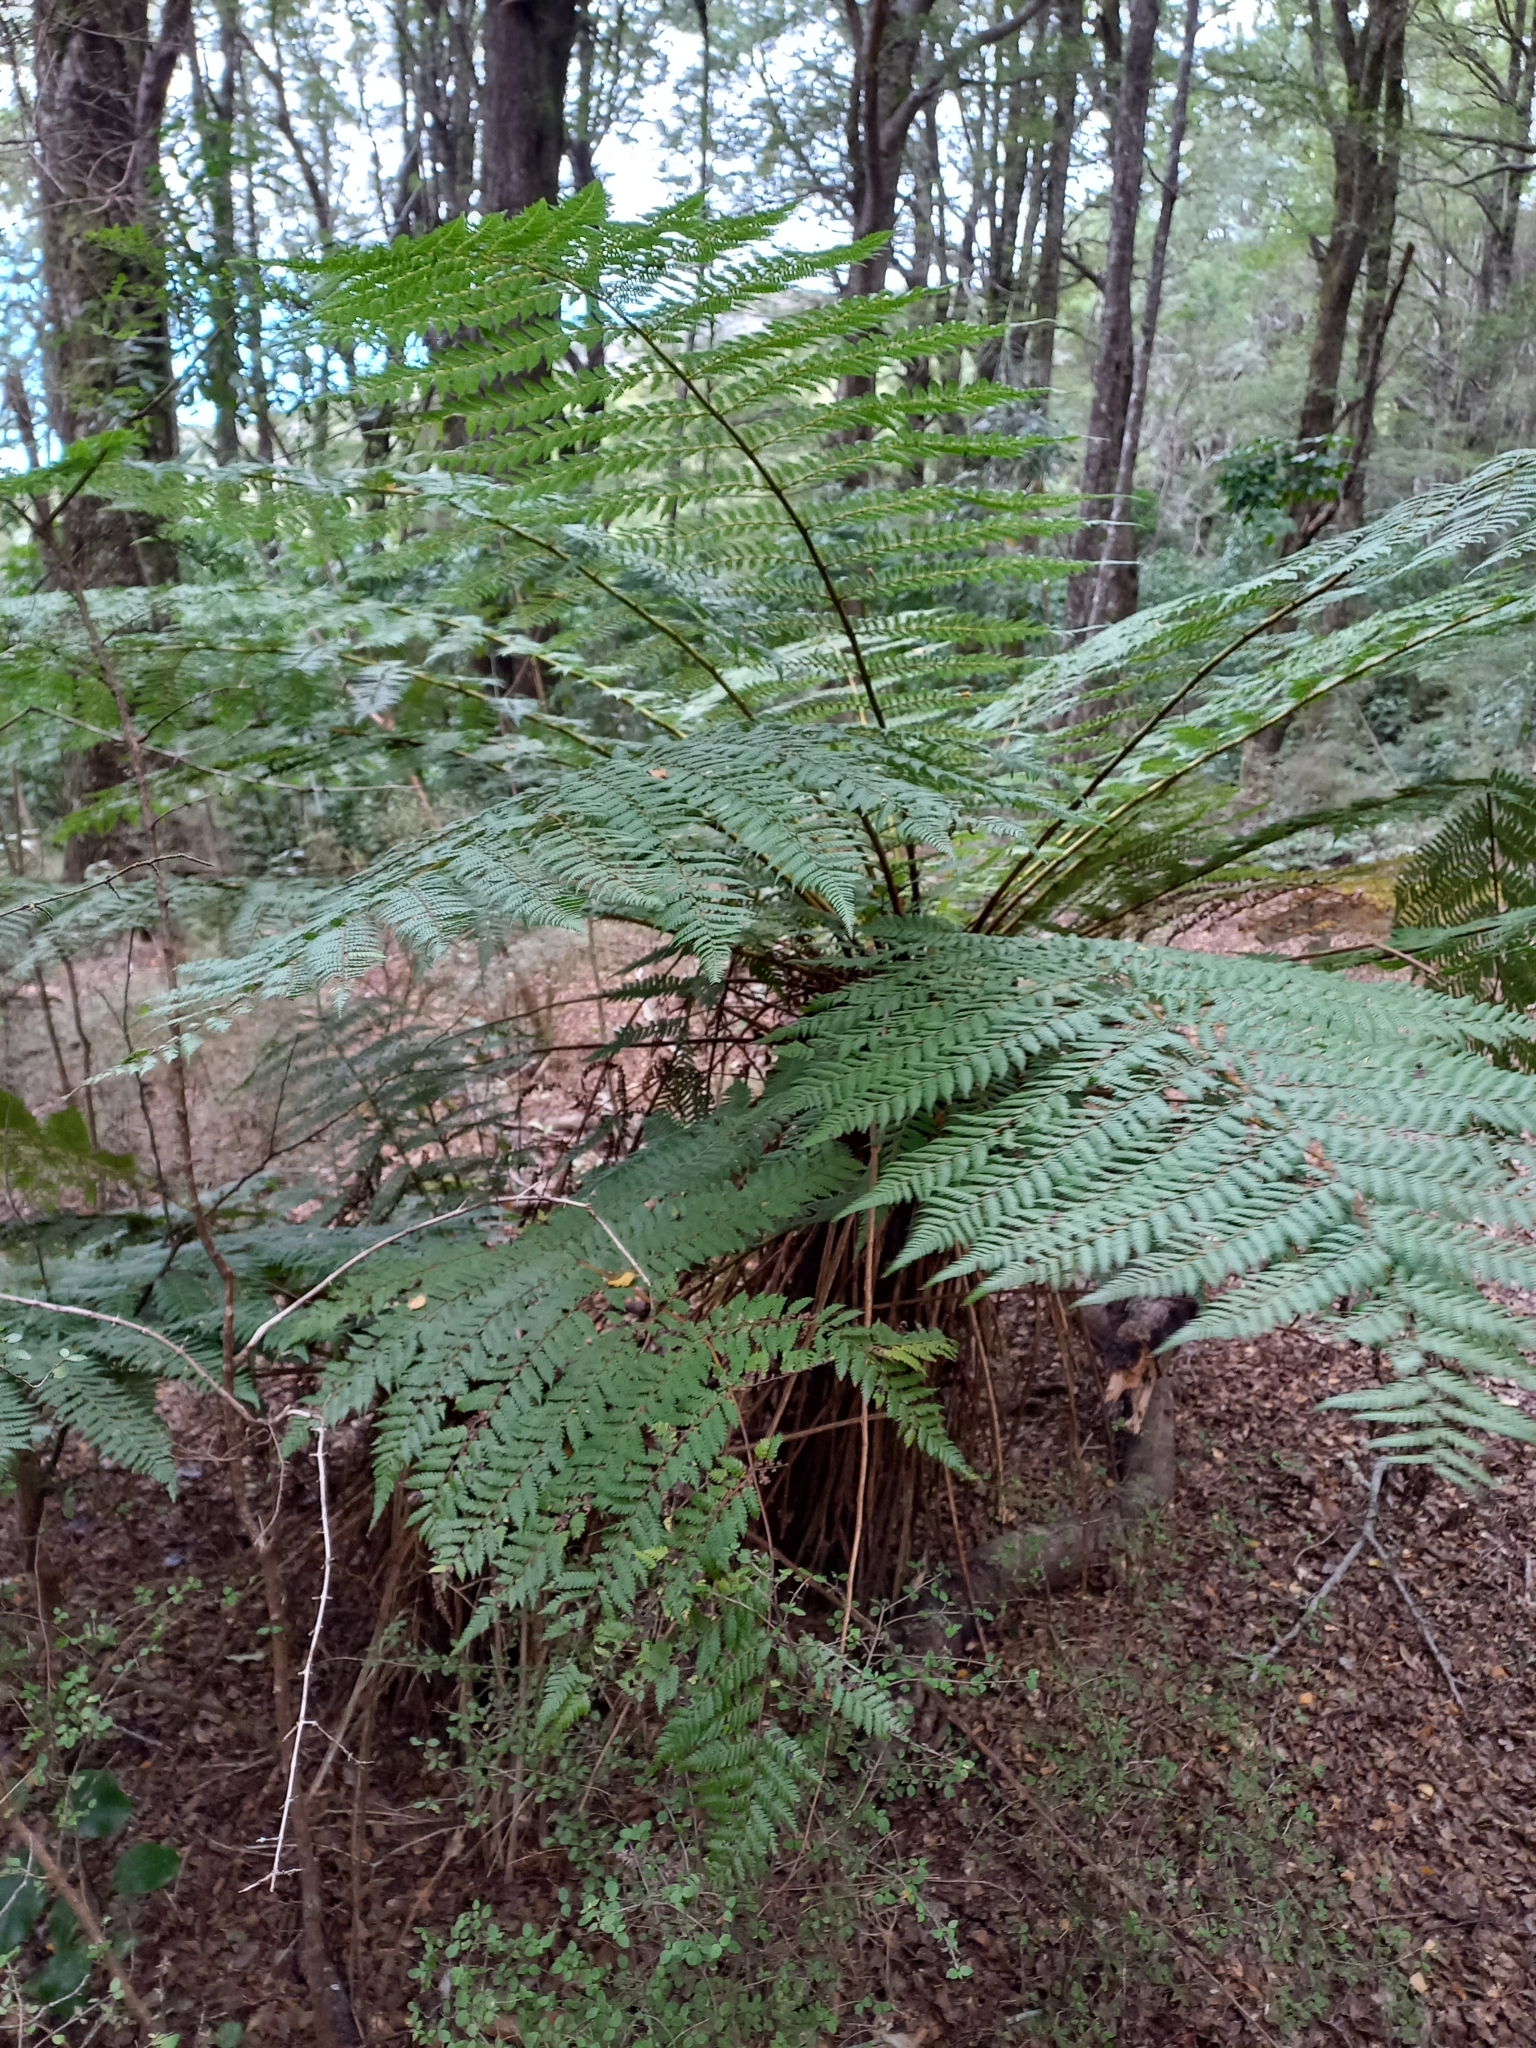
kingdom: Plantae
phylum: Tracheophyta
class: Polypodiopsida
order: Cyatheales
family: Cyatheaceae
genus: Alsophila
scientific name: Alsophila smithii
